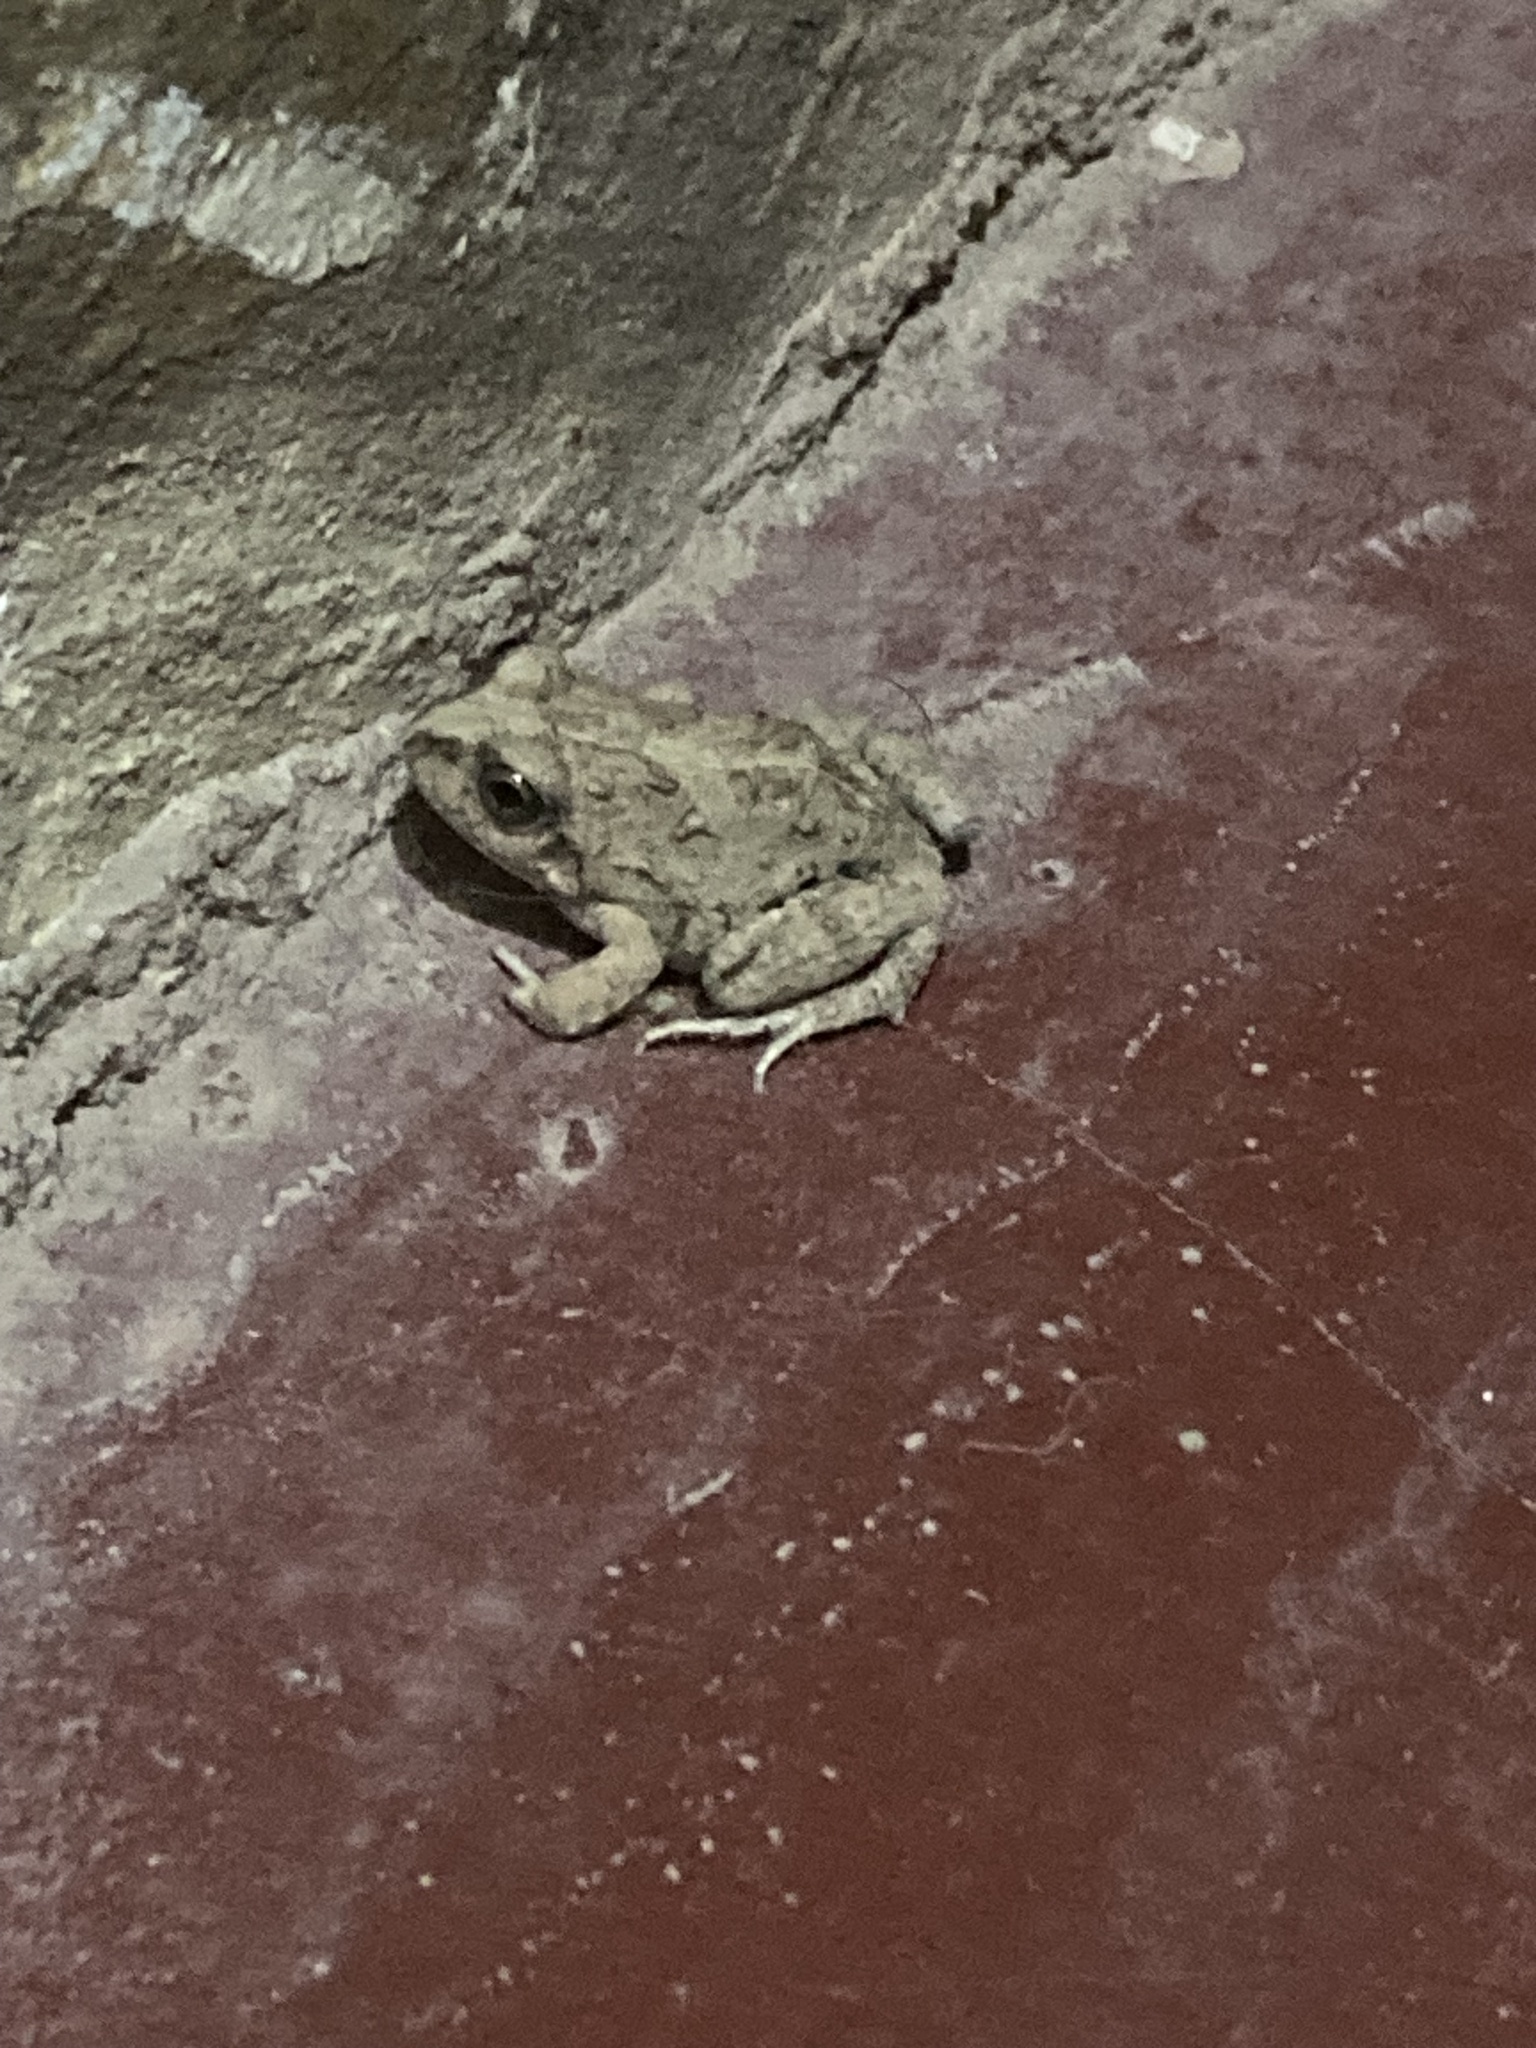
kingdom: Animalia
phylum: Chordata
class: Amphibia
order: Anura
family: Leptodactylidae
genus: Pleurodema
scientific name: Pleurodema cinereum
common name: Juliaca four-eyed frog
